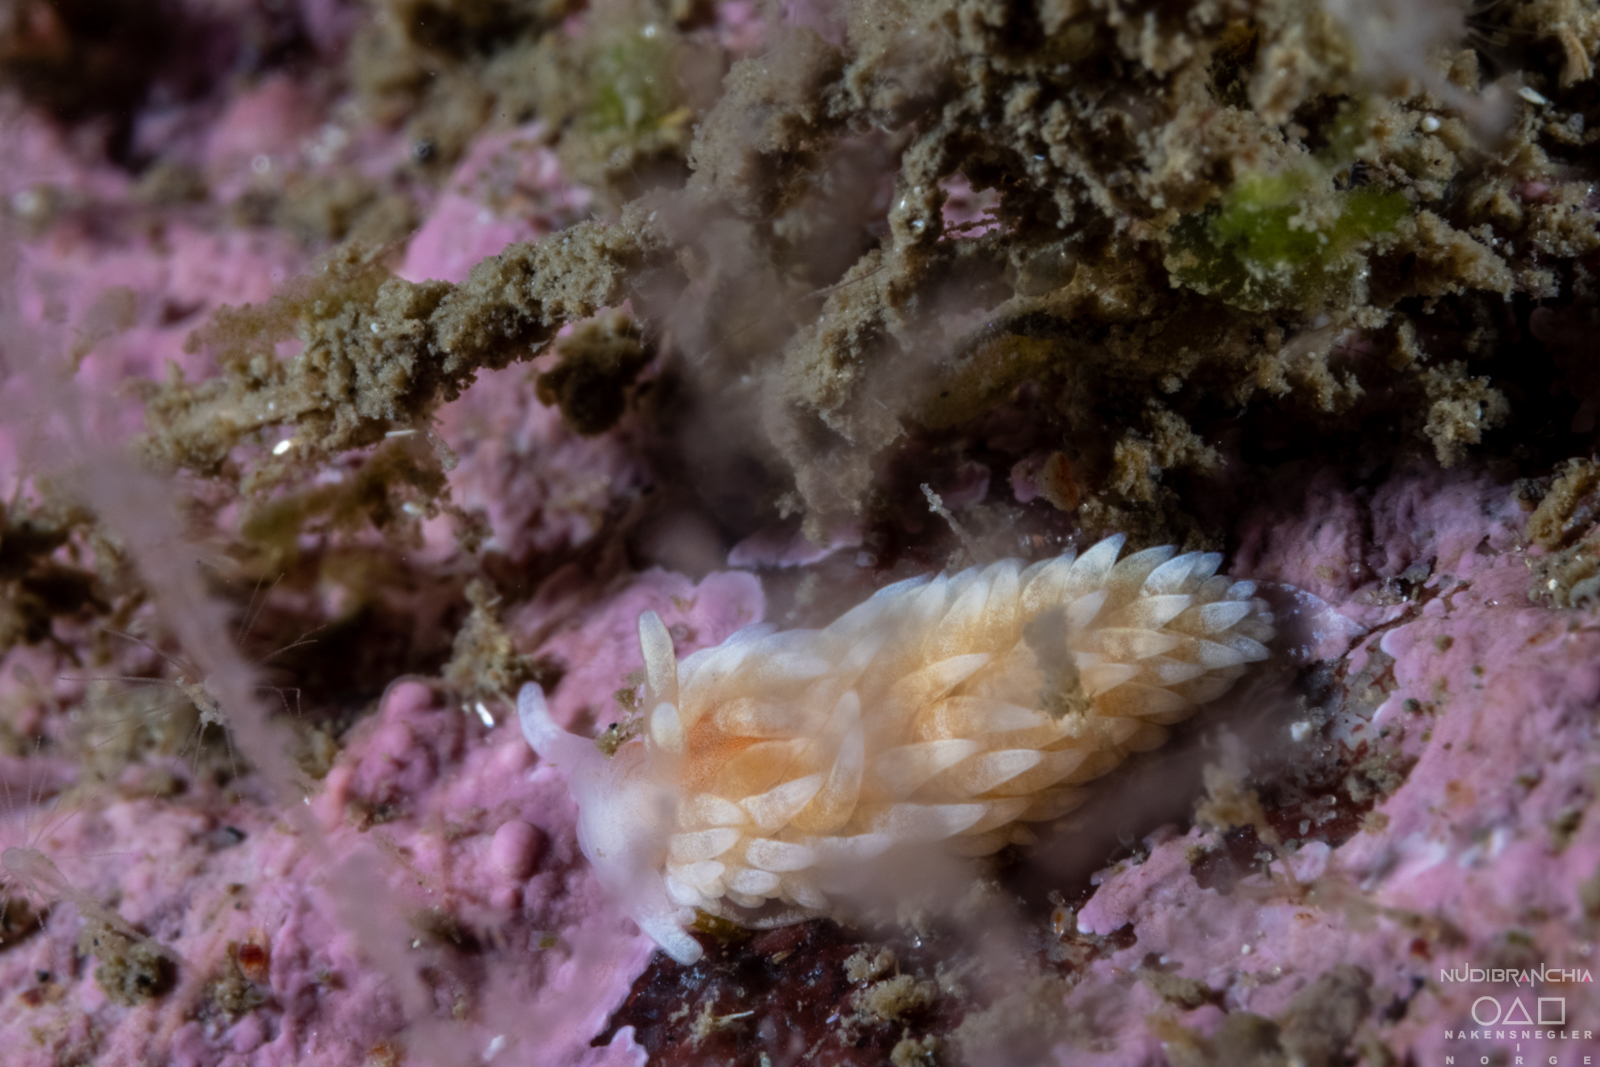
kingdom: Animalia
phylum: Mollusca
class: Gastropoda
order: Nudibranchia
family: Aeolidiidae
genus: Aeolidiella
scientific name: Aeolidiella glauca
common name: Orange-brown aeolid
